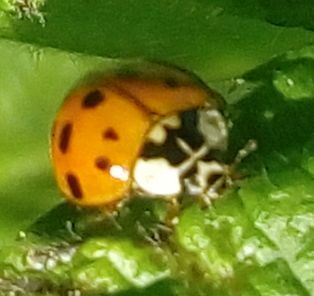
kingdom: Animalia
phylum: Arthropoda
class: Insecta
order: Coleoptera
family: Coccinellidae
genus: Harmonia
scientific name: Harmonia axyridis
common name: Harlequin ladybird
